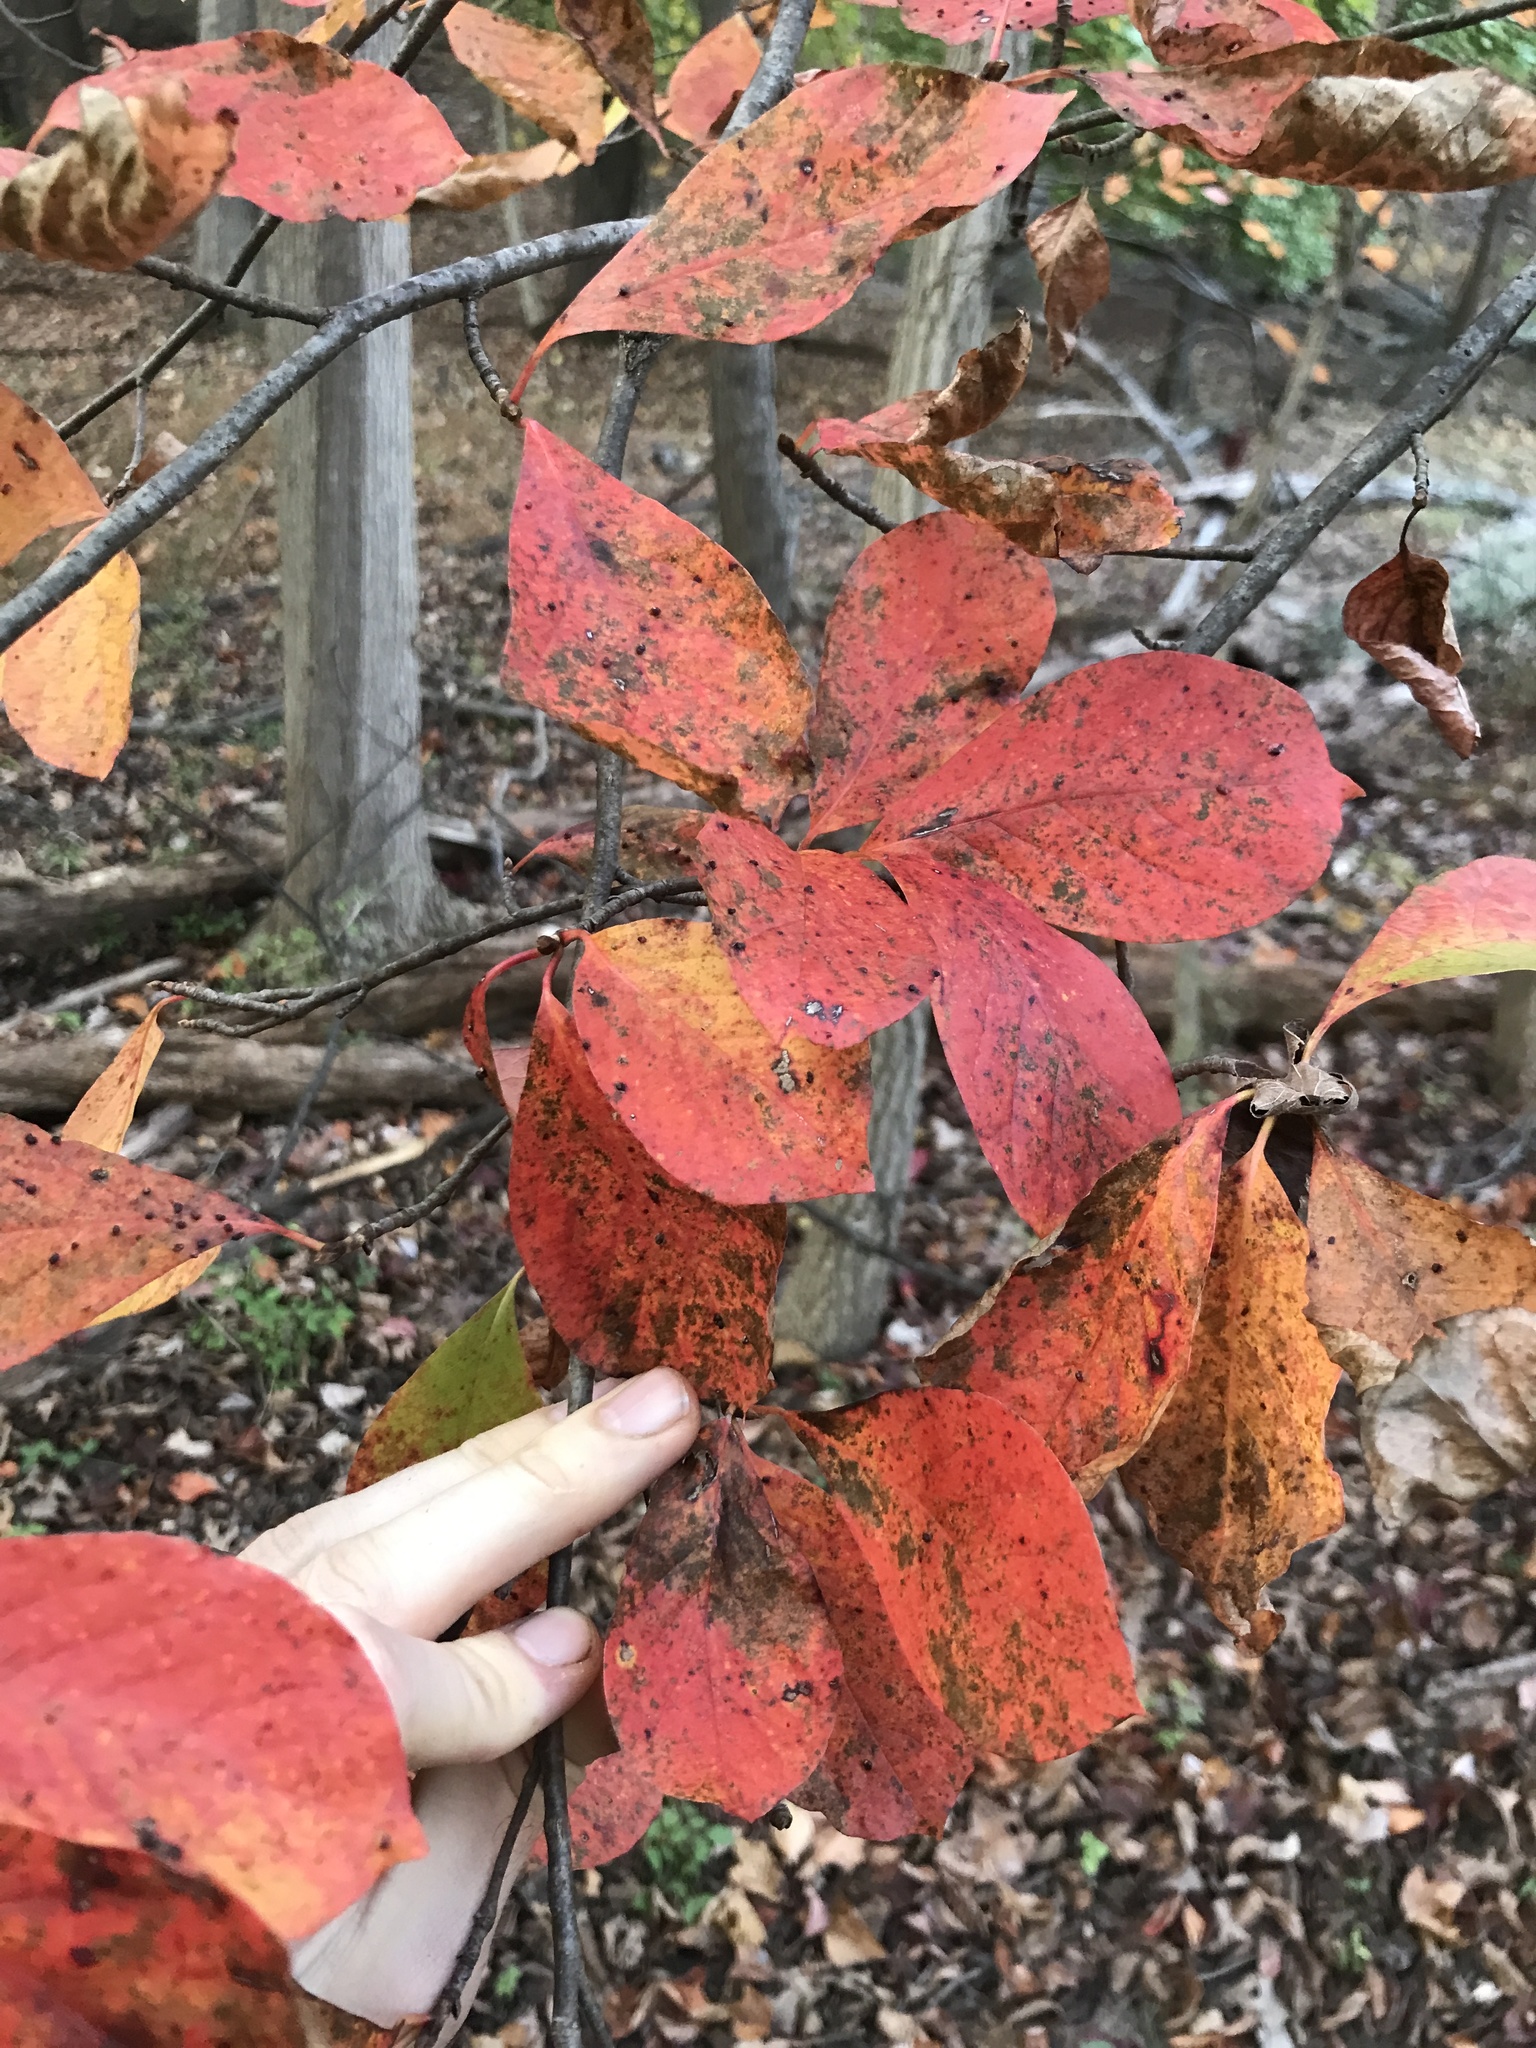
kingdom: Plantae
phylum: Tracheophyta
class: Magnoliopsida
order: Cornales
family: Nyssaceae
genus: Nyssa
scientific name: Nyssa sylvatica
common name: Black tupelo
